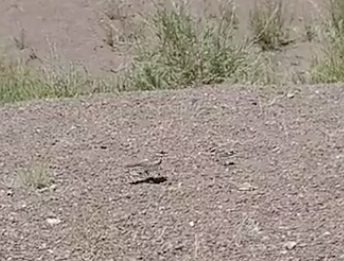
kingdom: Animalia
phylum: Chordata
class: Aves
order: Charadriiformes
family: Charadriidae
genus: Charadrius
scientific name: Charadrius vociferus
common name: Killdeer
